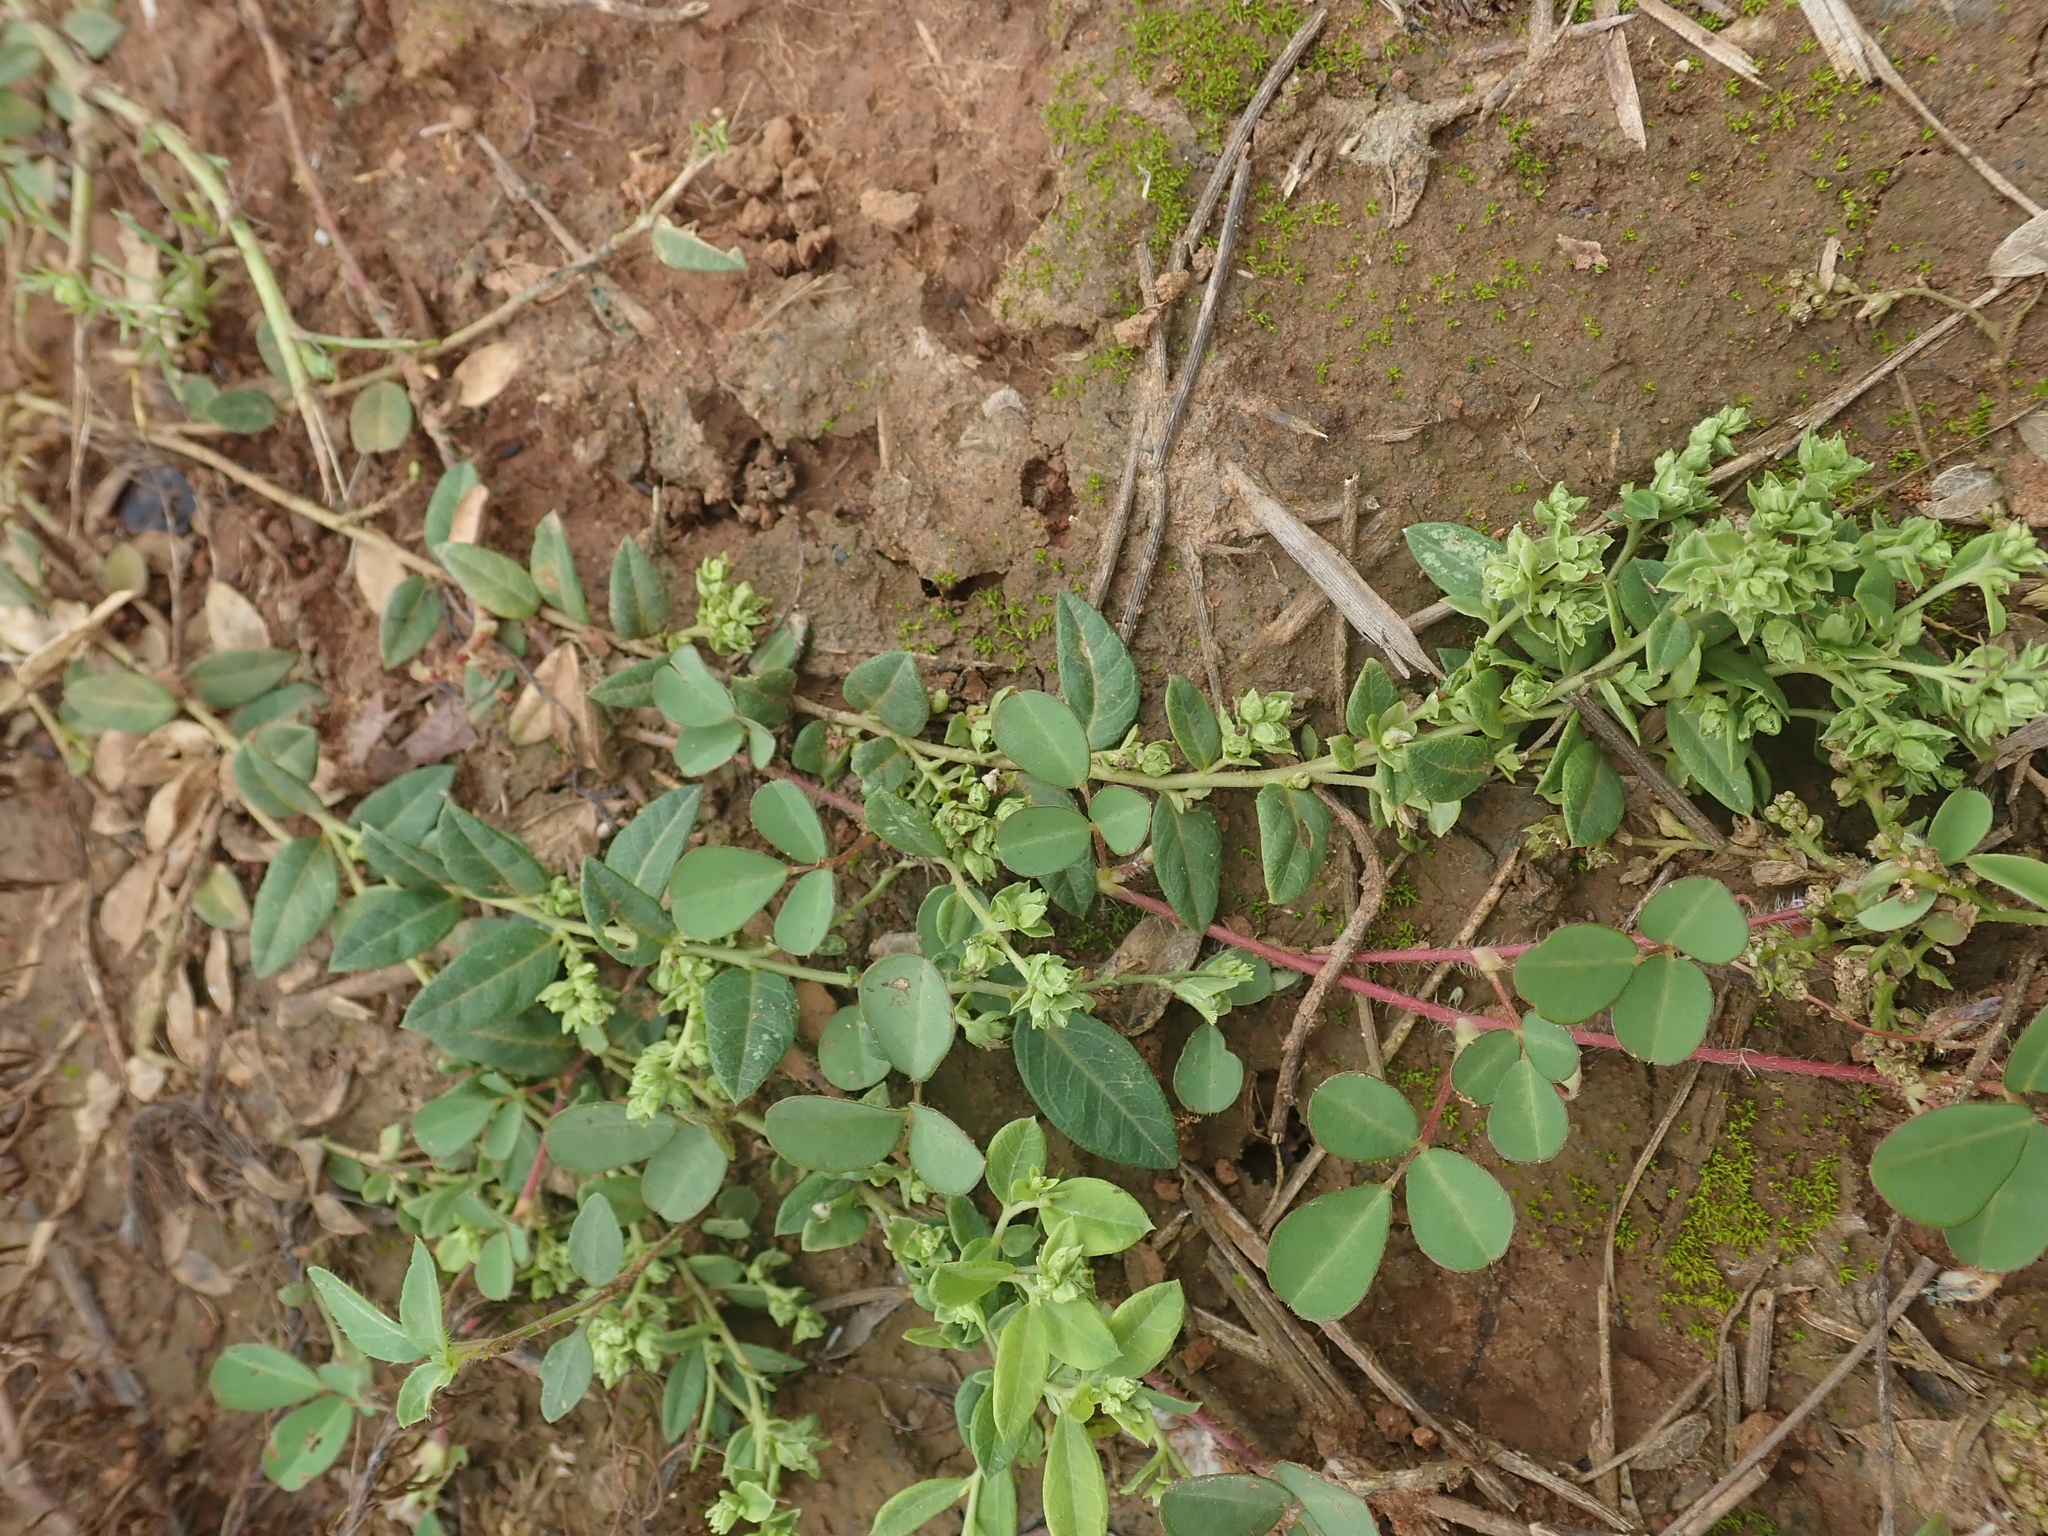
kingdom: Plantae
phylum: Tracheophyta
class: Magnoliopsida
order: Fabales
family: Polygalaceae
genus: Polygala
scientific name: Polygala arvensis
